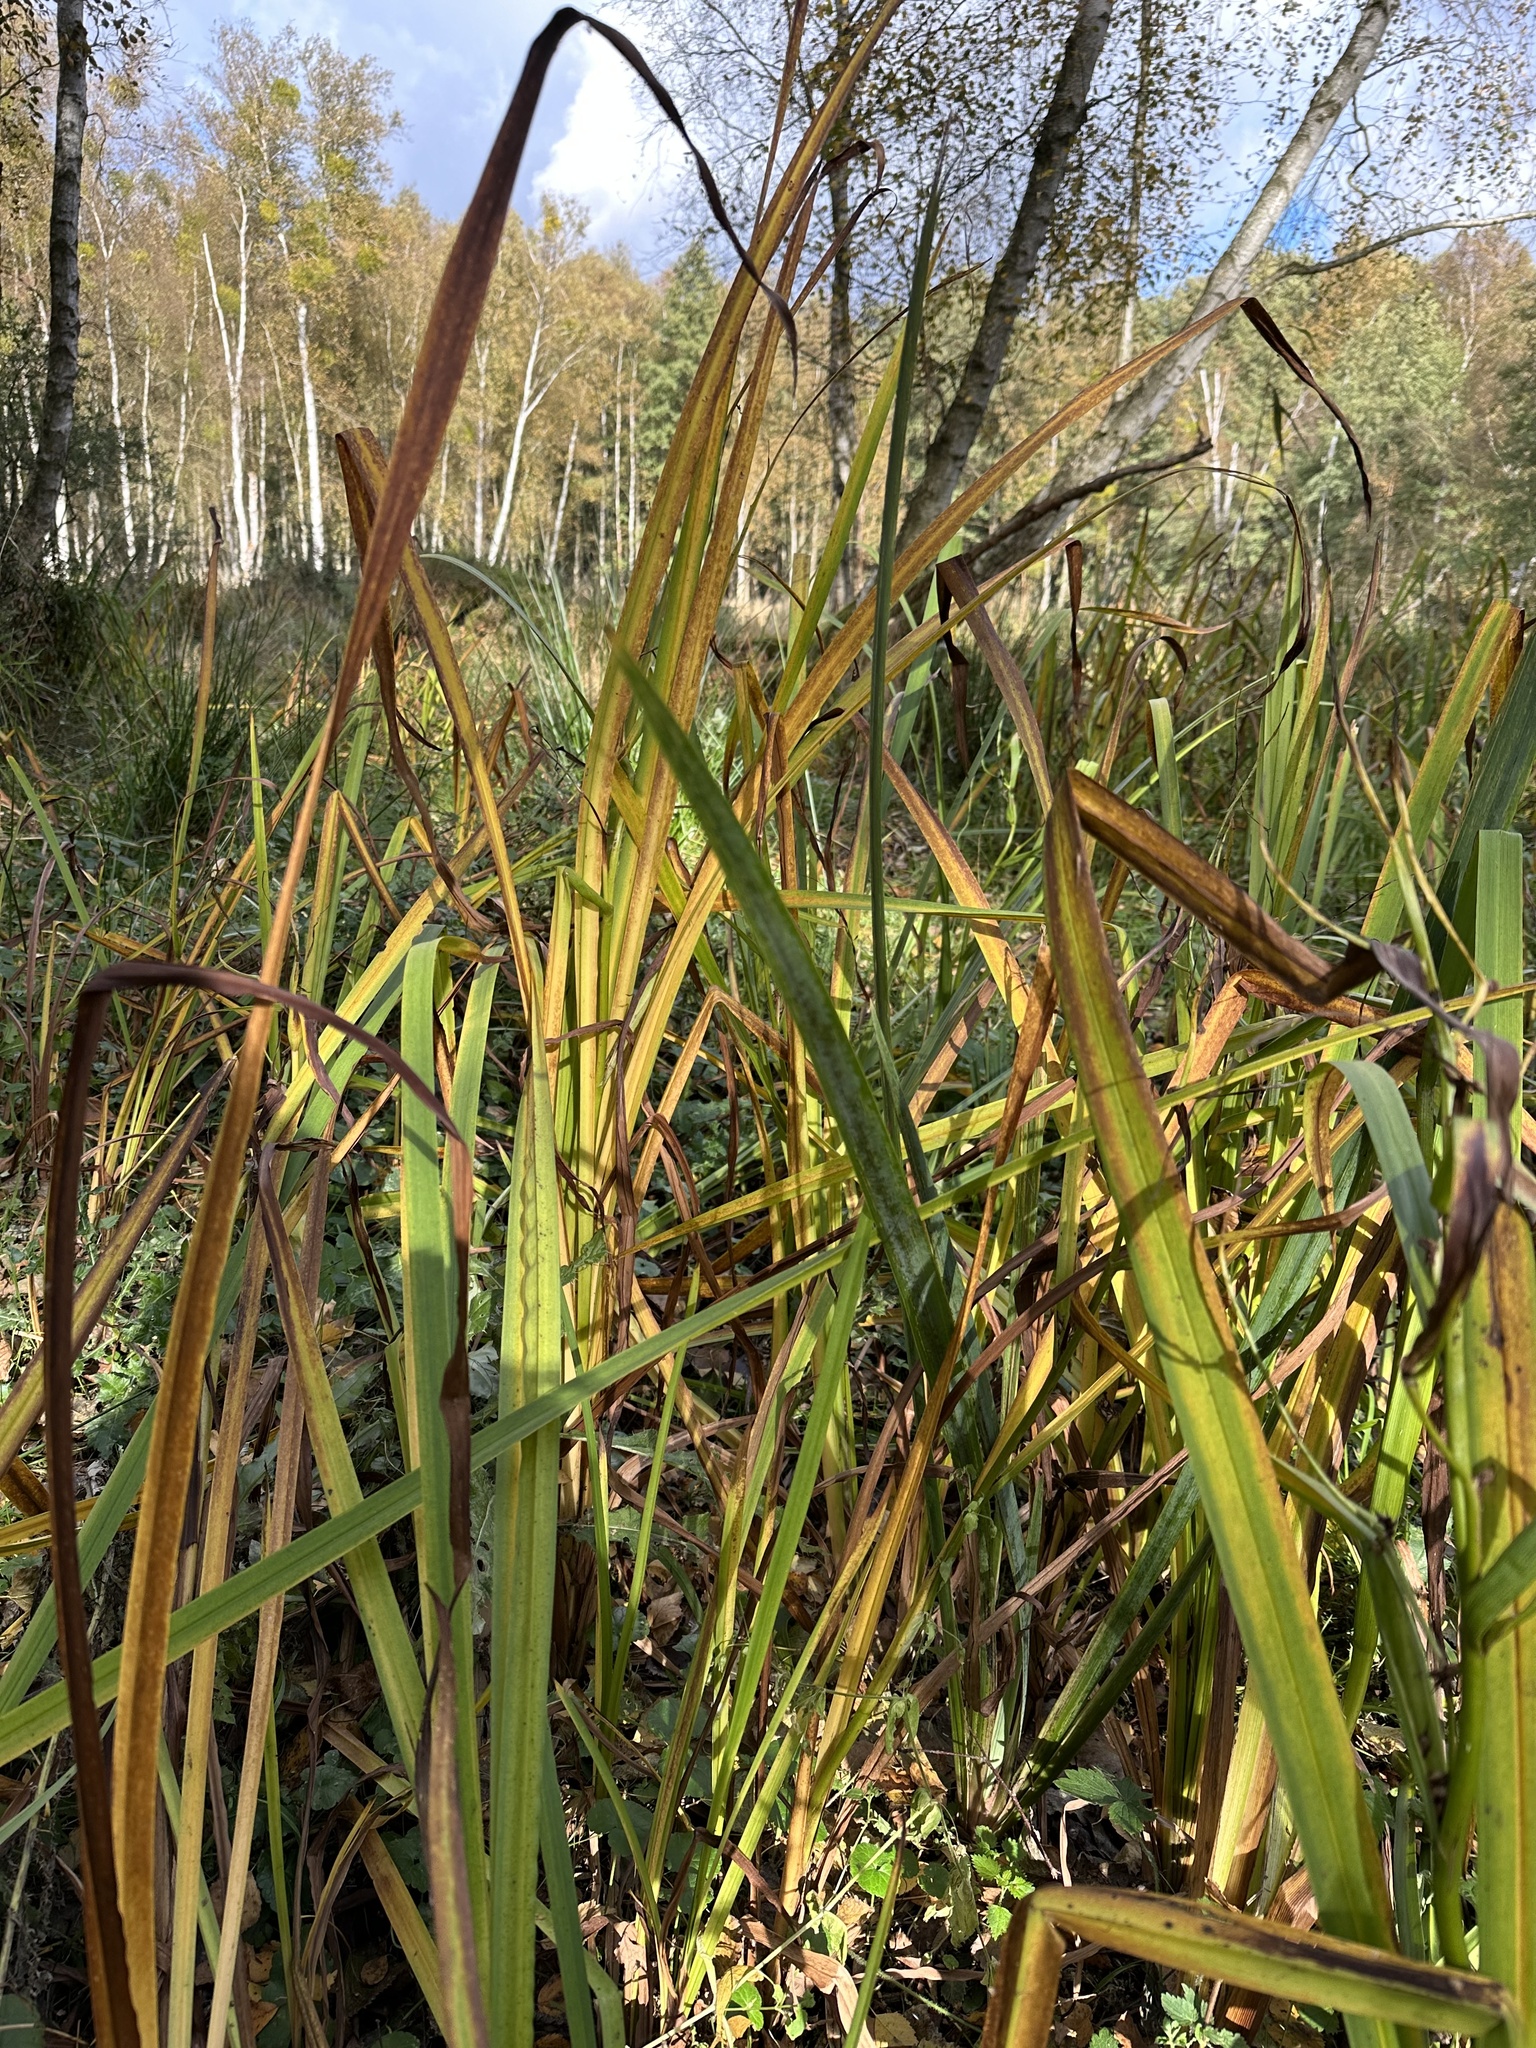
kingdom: Plantae
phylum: Tracheophyta
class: Liliopsida
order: Poales
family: Typhaceae
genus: Sparganium
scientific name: Sparganium erectum
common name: Branched bur-reed
